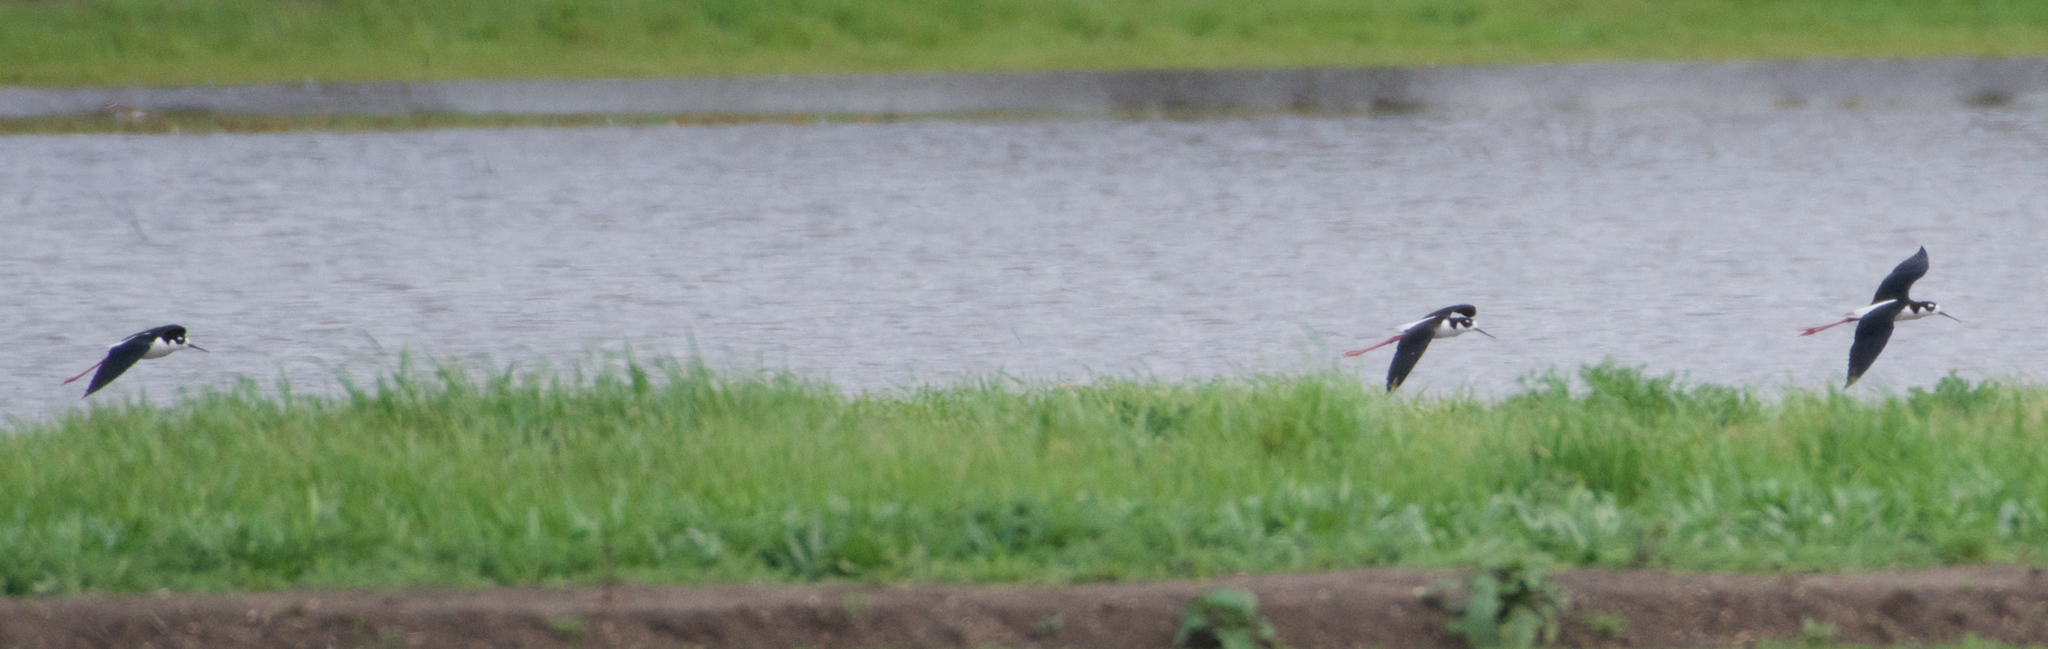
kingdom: Animalia
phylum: Chordata
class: Aves
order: Charadriiformes
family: Recurvirostridae
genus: Himantopus
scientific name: Himantopus mexicanus
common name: Black-necked stilt
